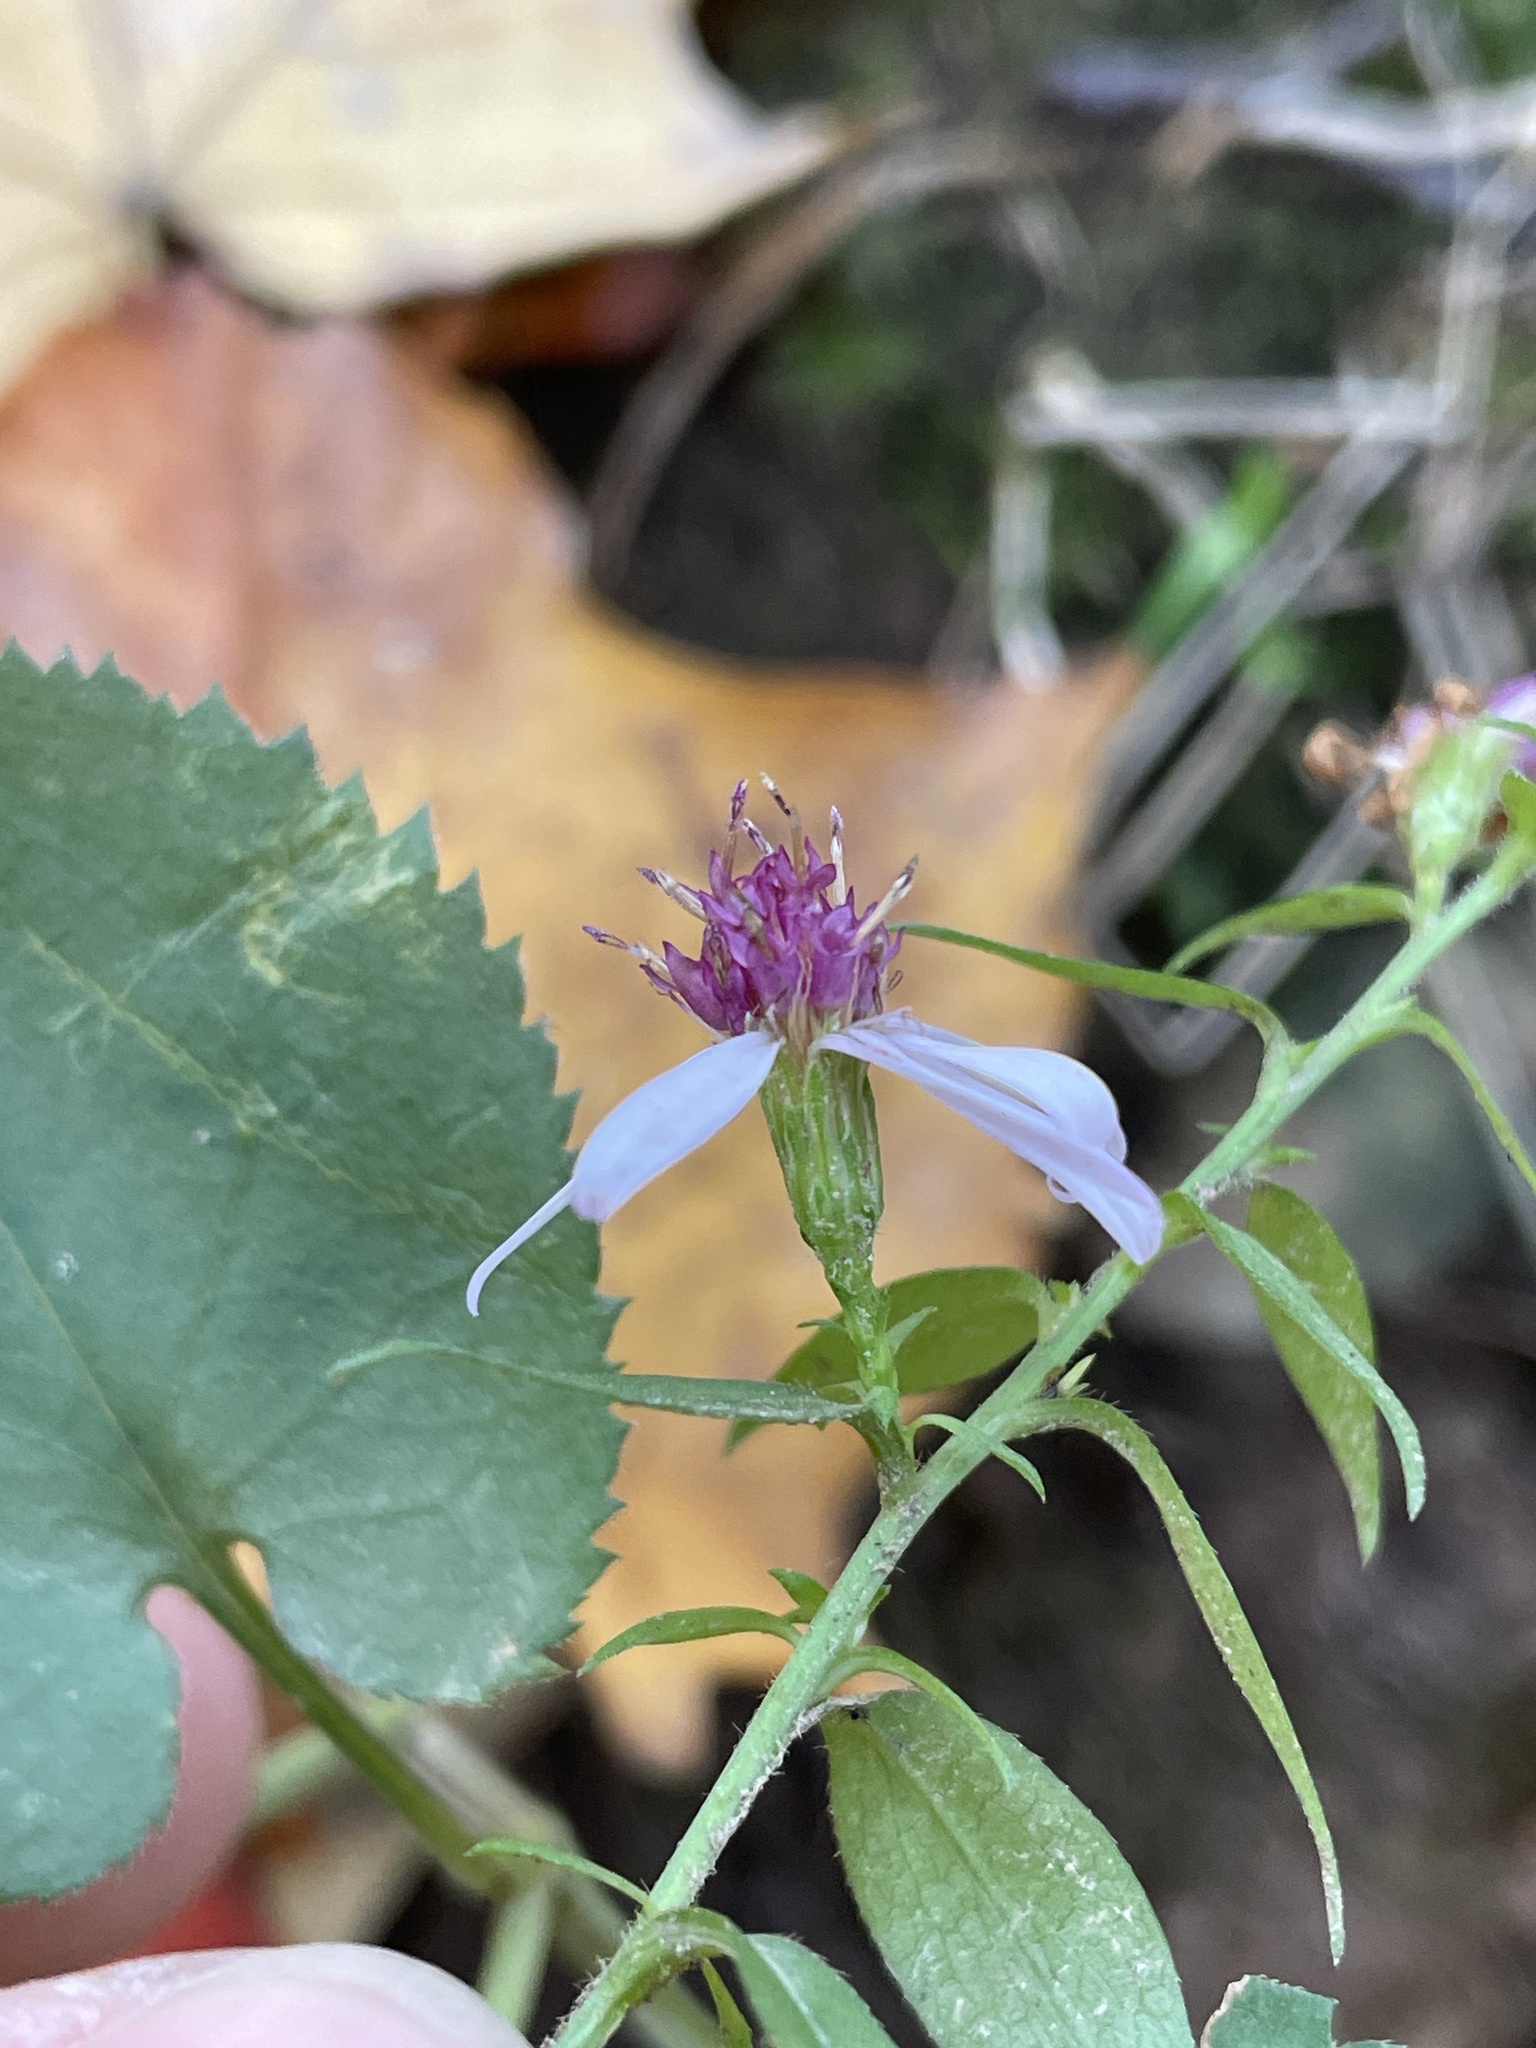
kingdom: Plantae
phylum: Tracheophyta
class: Magnoliopsida
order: Asterales
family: Asteraceae
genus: Symphyotrichum
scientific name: Symphyotrichum cordifolium
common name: Beeweed
